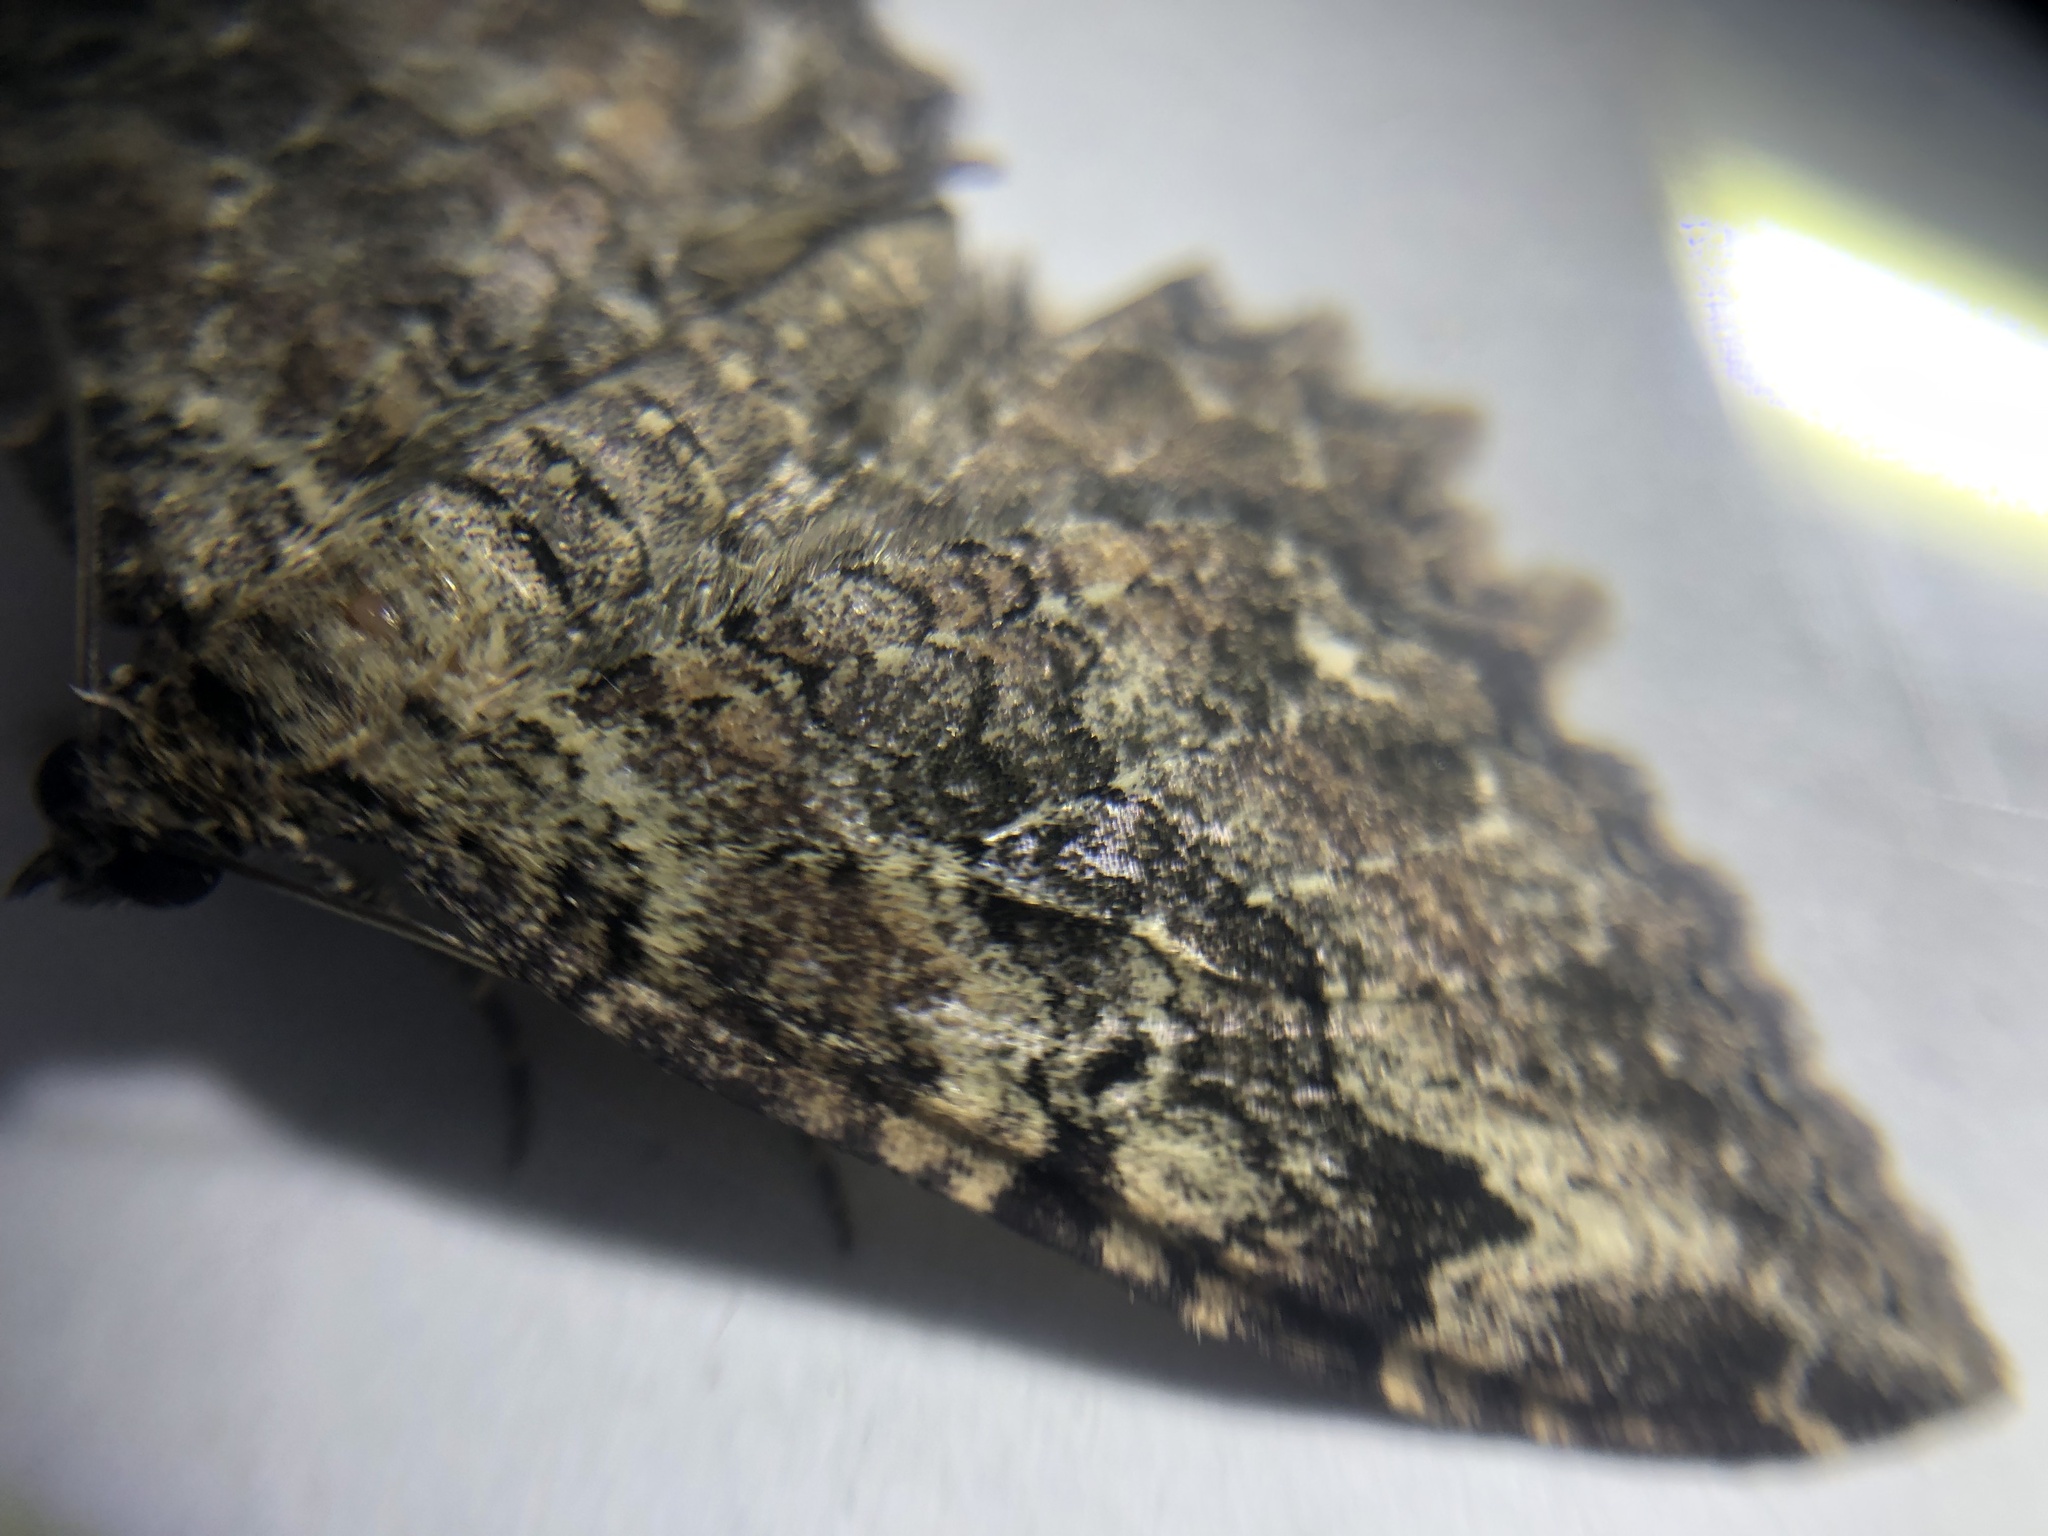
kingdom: Animalia
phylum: Arthropoda
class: Insecta
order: Lepidoptera
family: Geometridae
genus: Rheumaptera
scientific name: Rheumaptera
